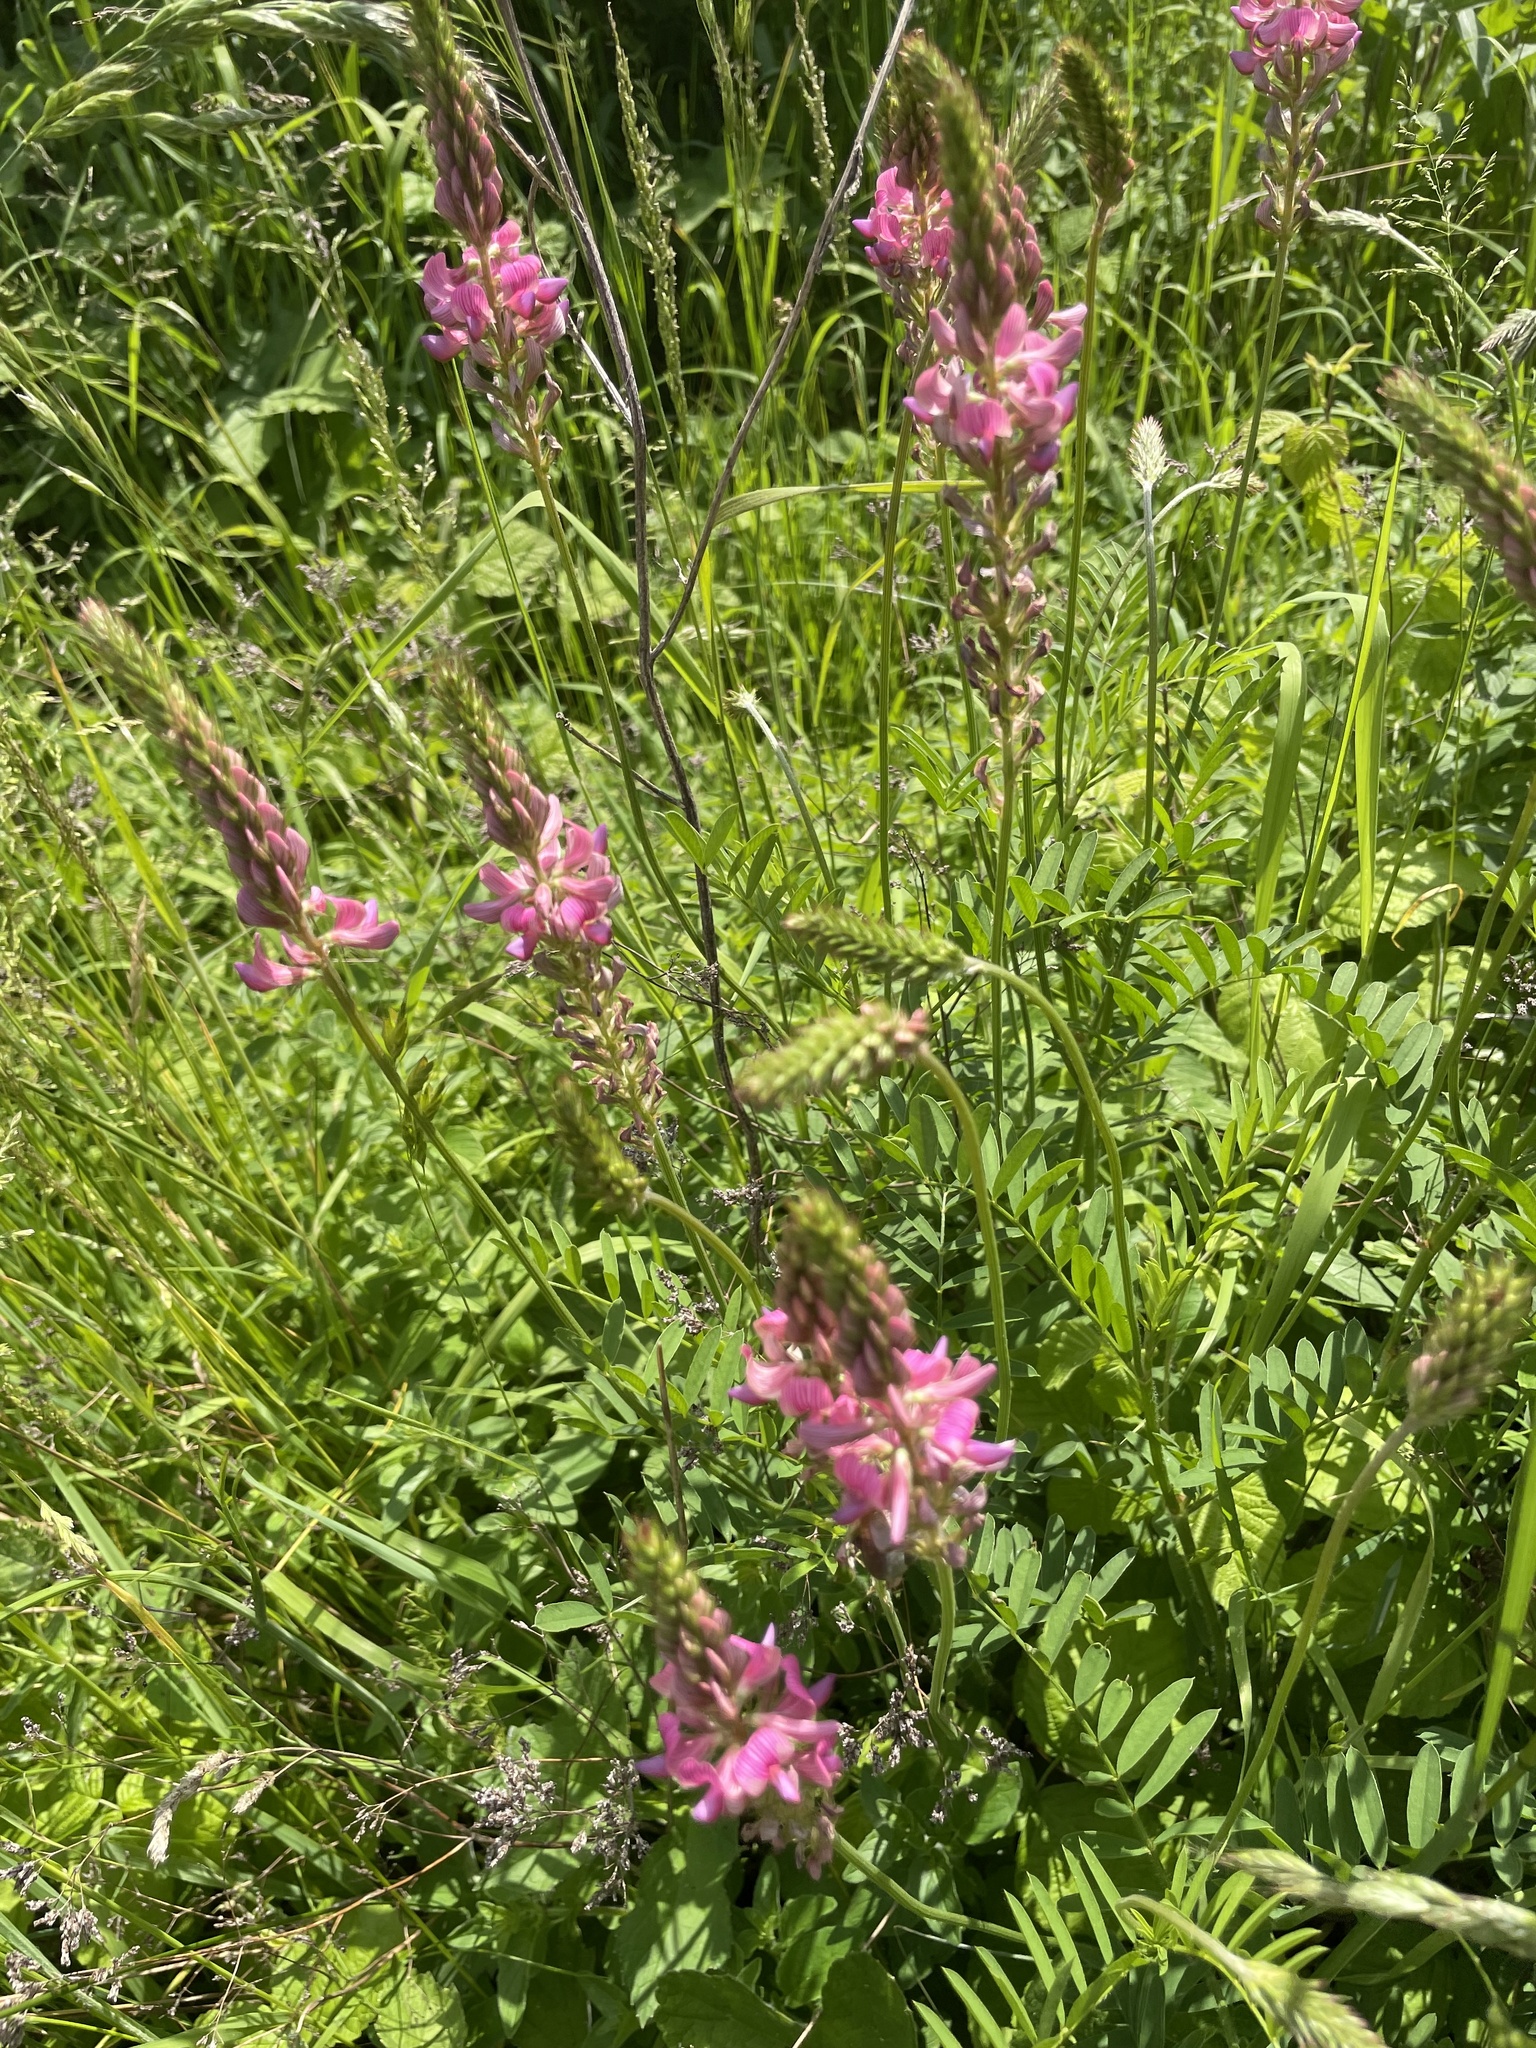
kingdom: Plantae
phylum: Tracheophyta
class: Magnoliopsida
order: Fabales
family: Fabaceae
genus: Onobrychis
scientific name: Onobrychis viciifolia
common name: Sainfoin
